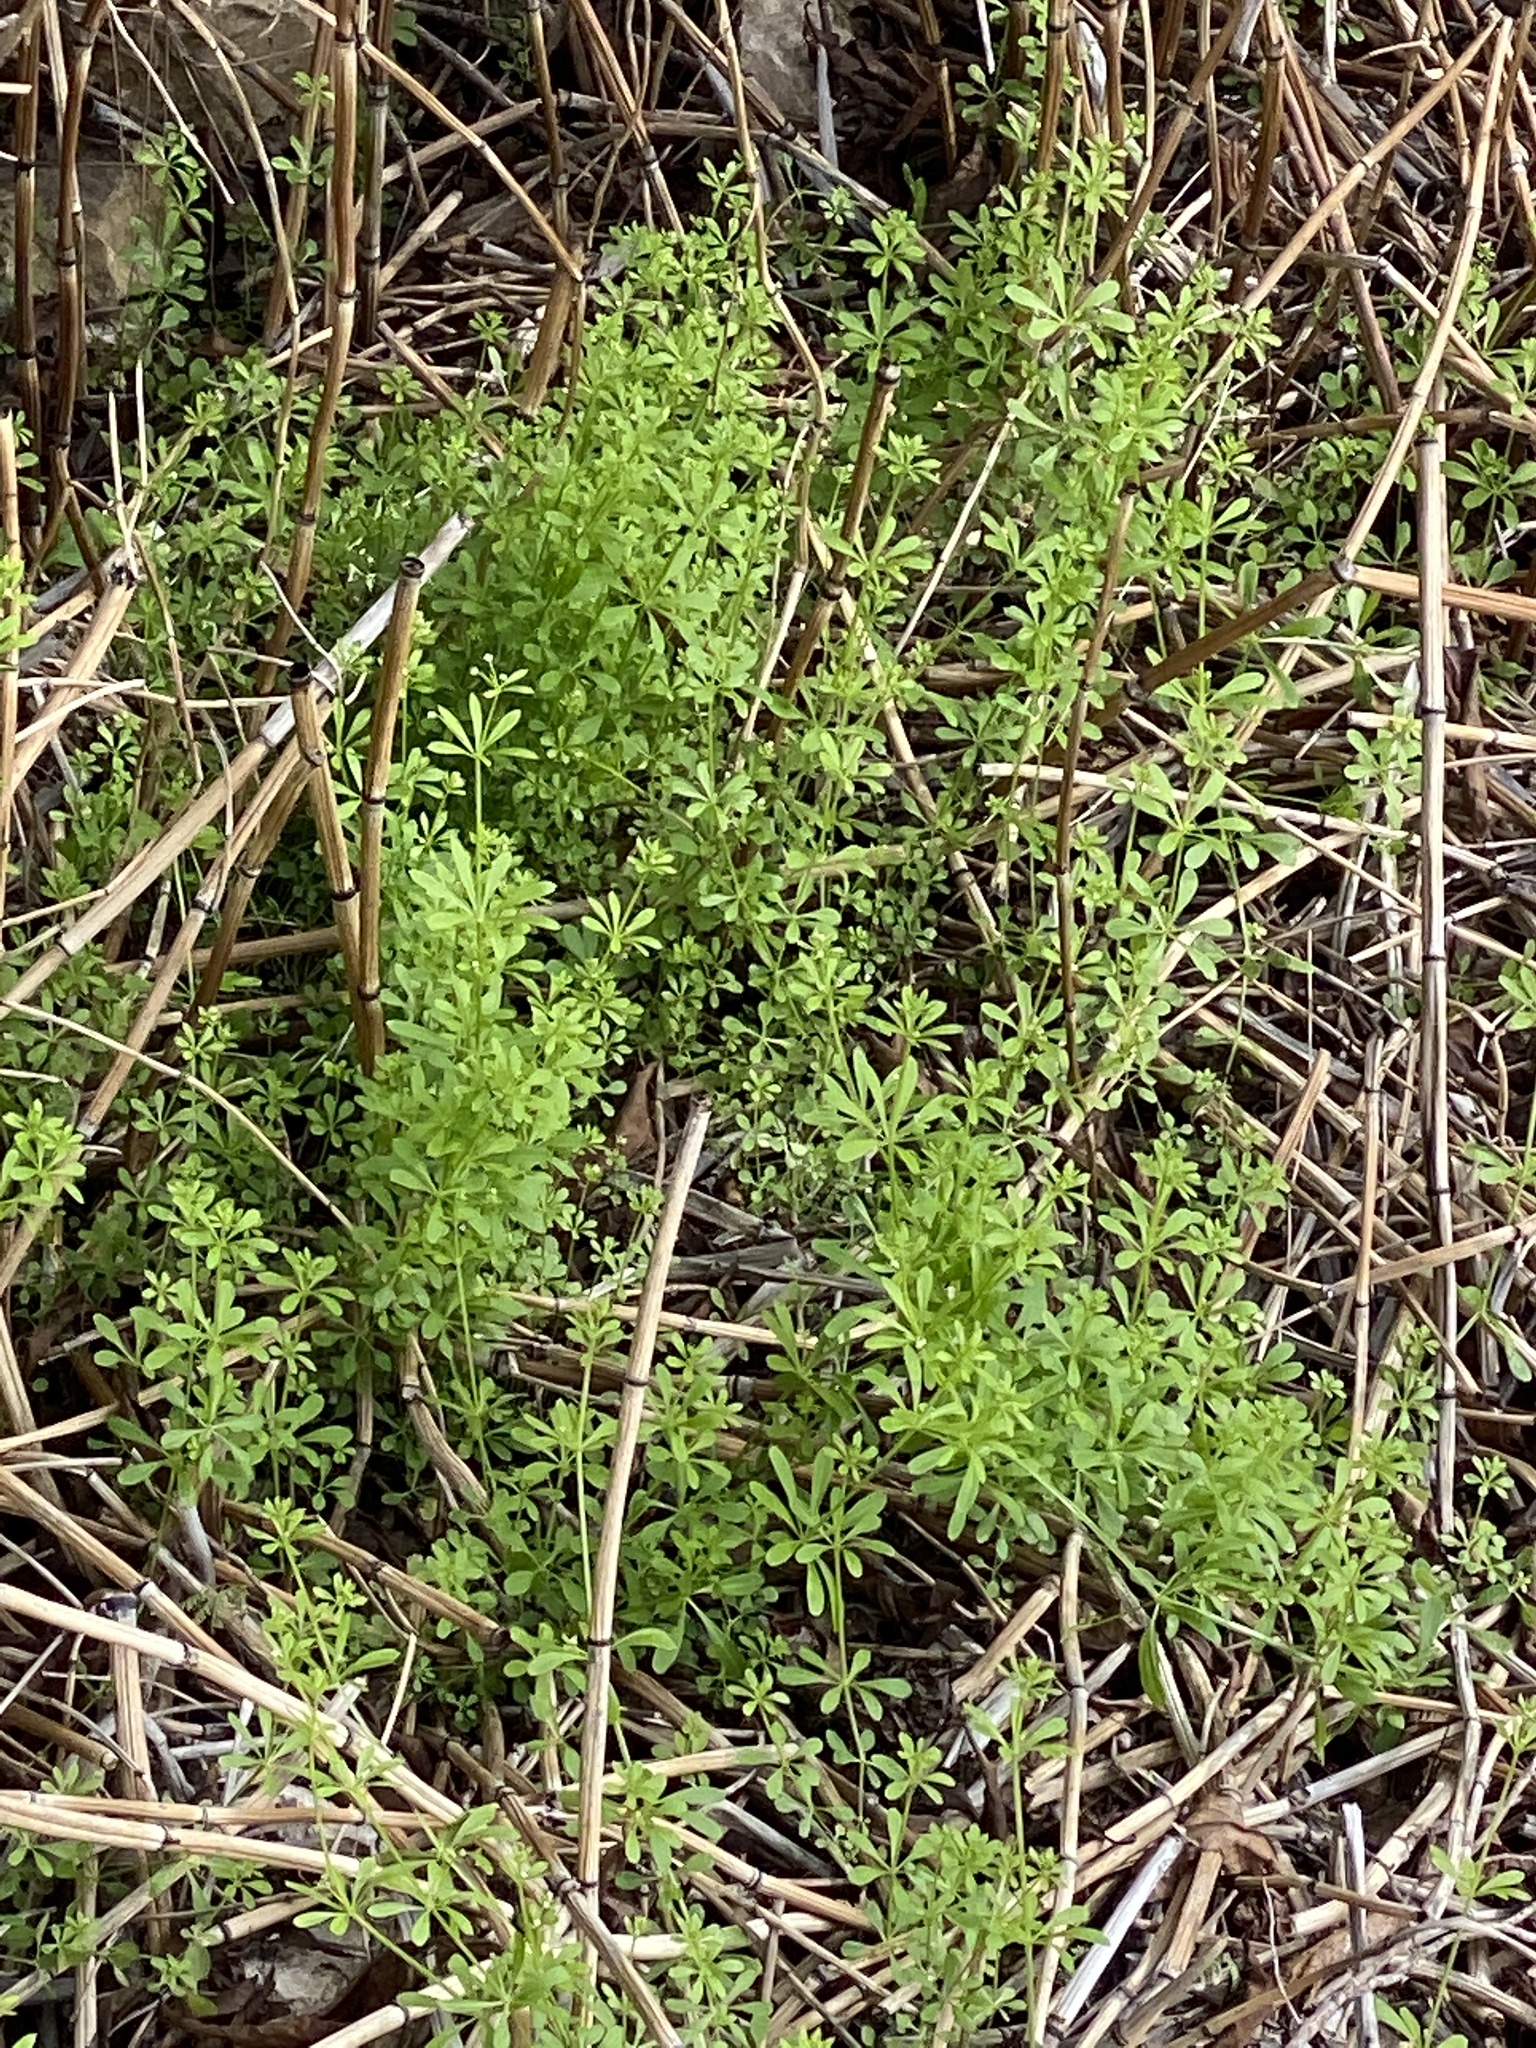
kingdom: Plantae
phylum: Tracheophyta
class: Magnoliopsida
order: Gentianales
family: Rubiaceae
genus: Galium
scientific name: Galium aparine
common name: Cleavers
